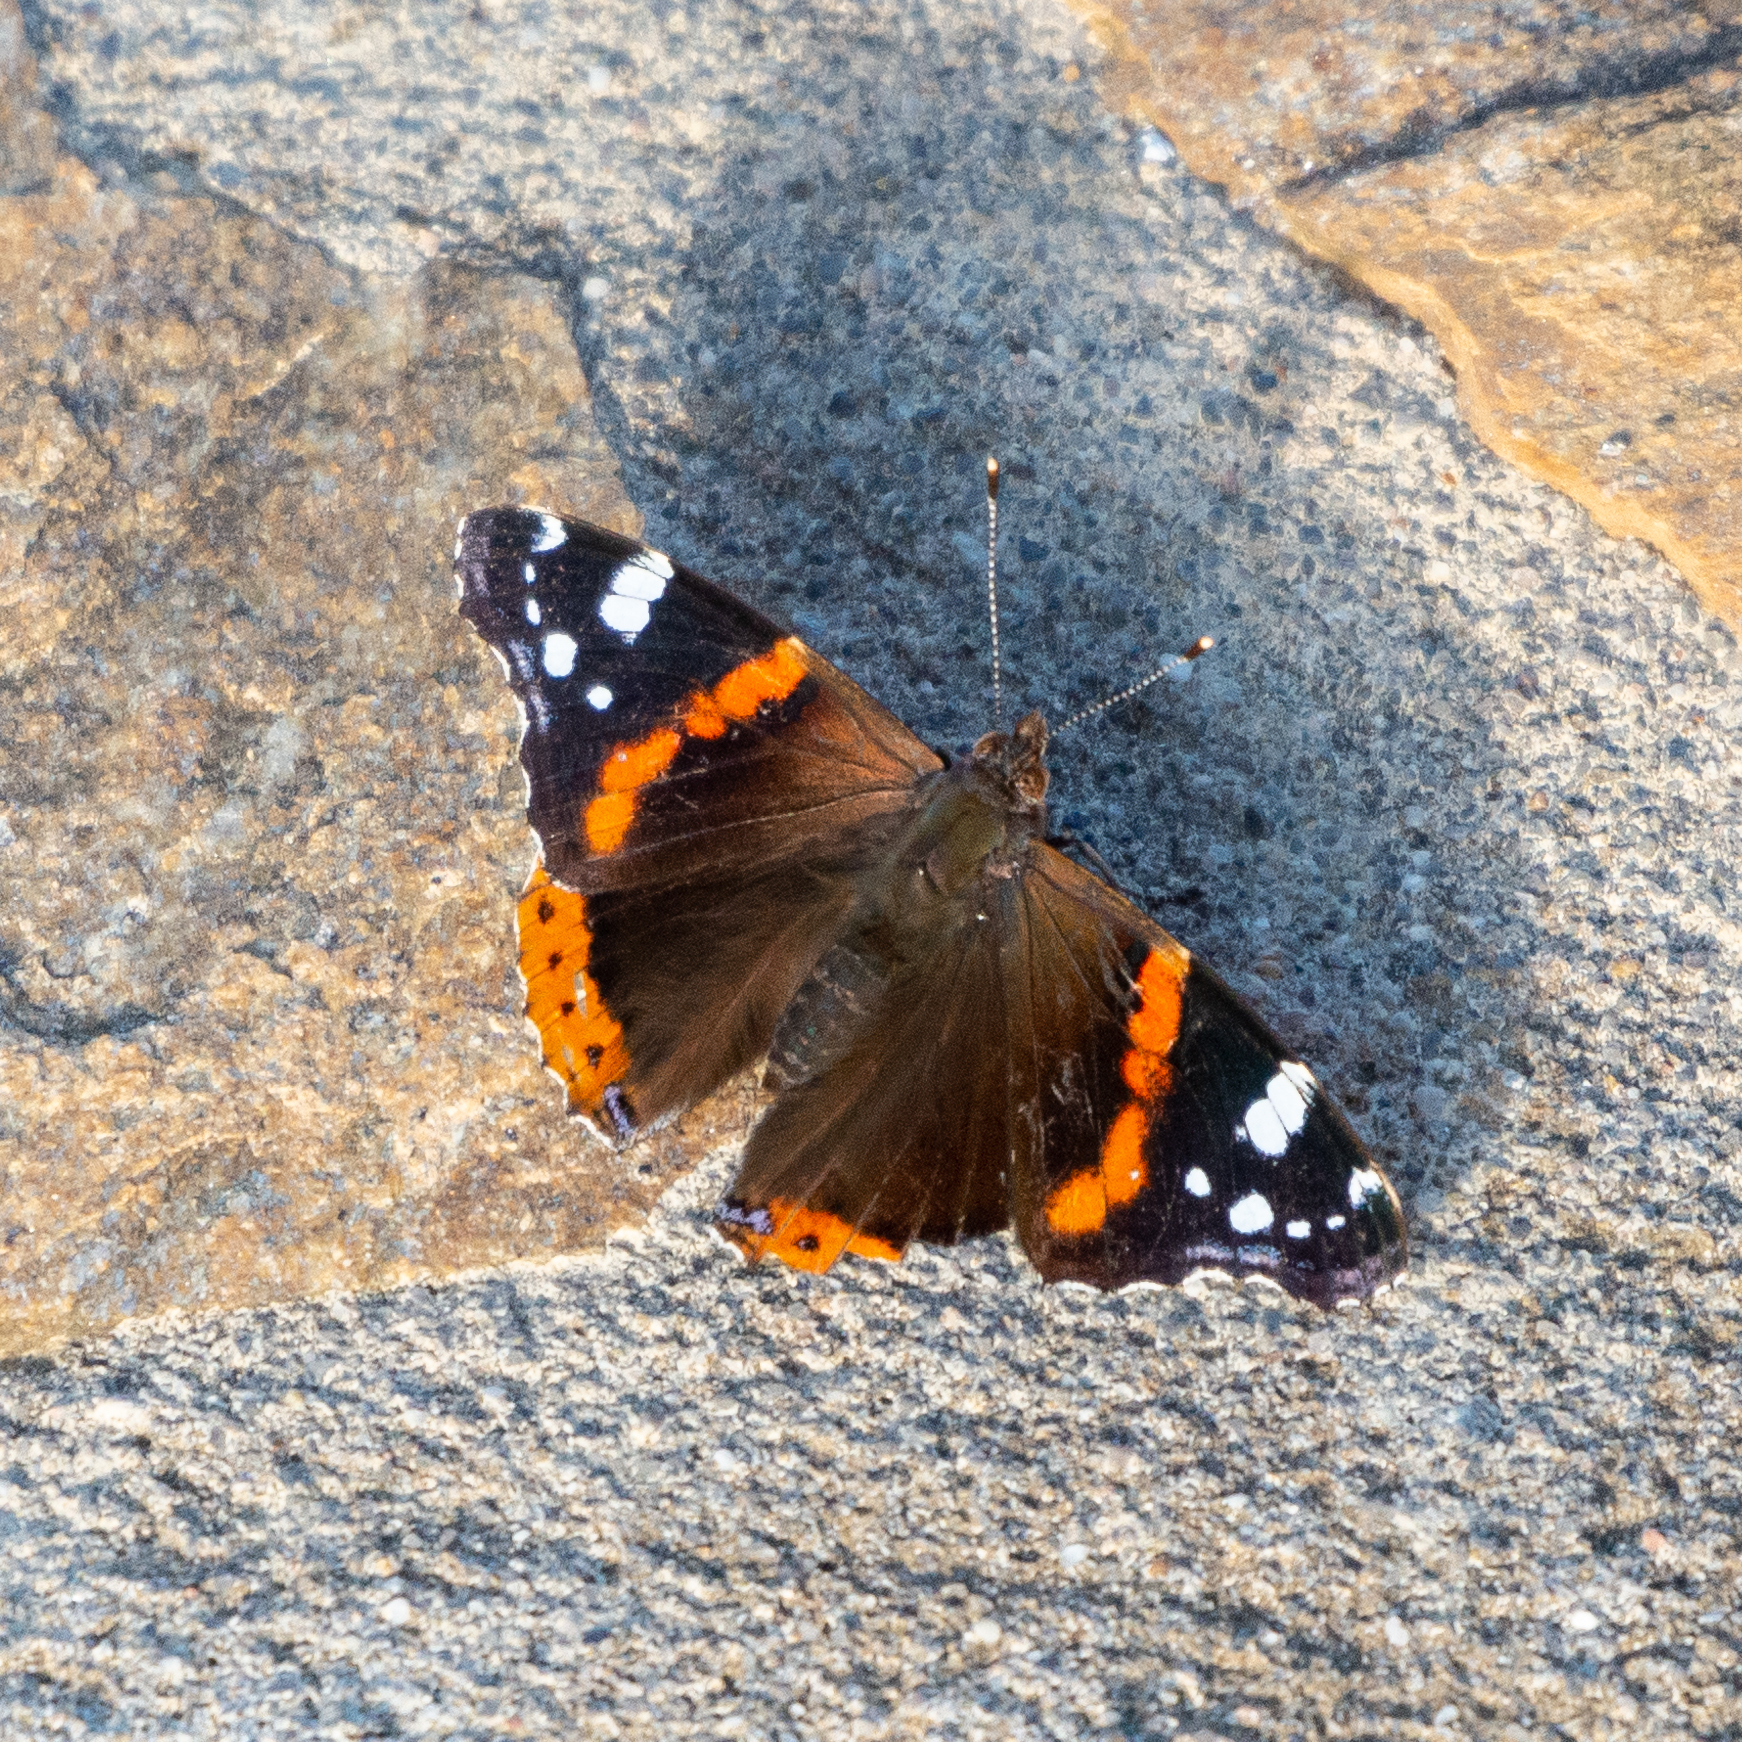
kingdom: Animalia
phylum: Arthropoda
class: Insecta
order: Lepidoptera
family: Nymphalidae
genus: Vanessa
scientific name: Vanessa atalanta
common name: Red admiral
